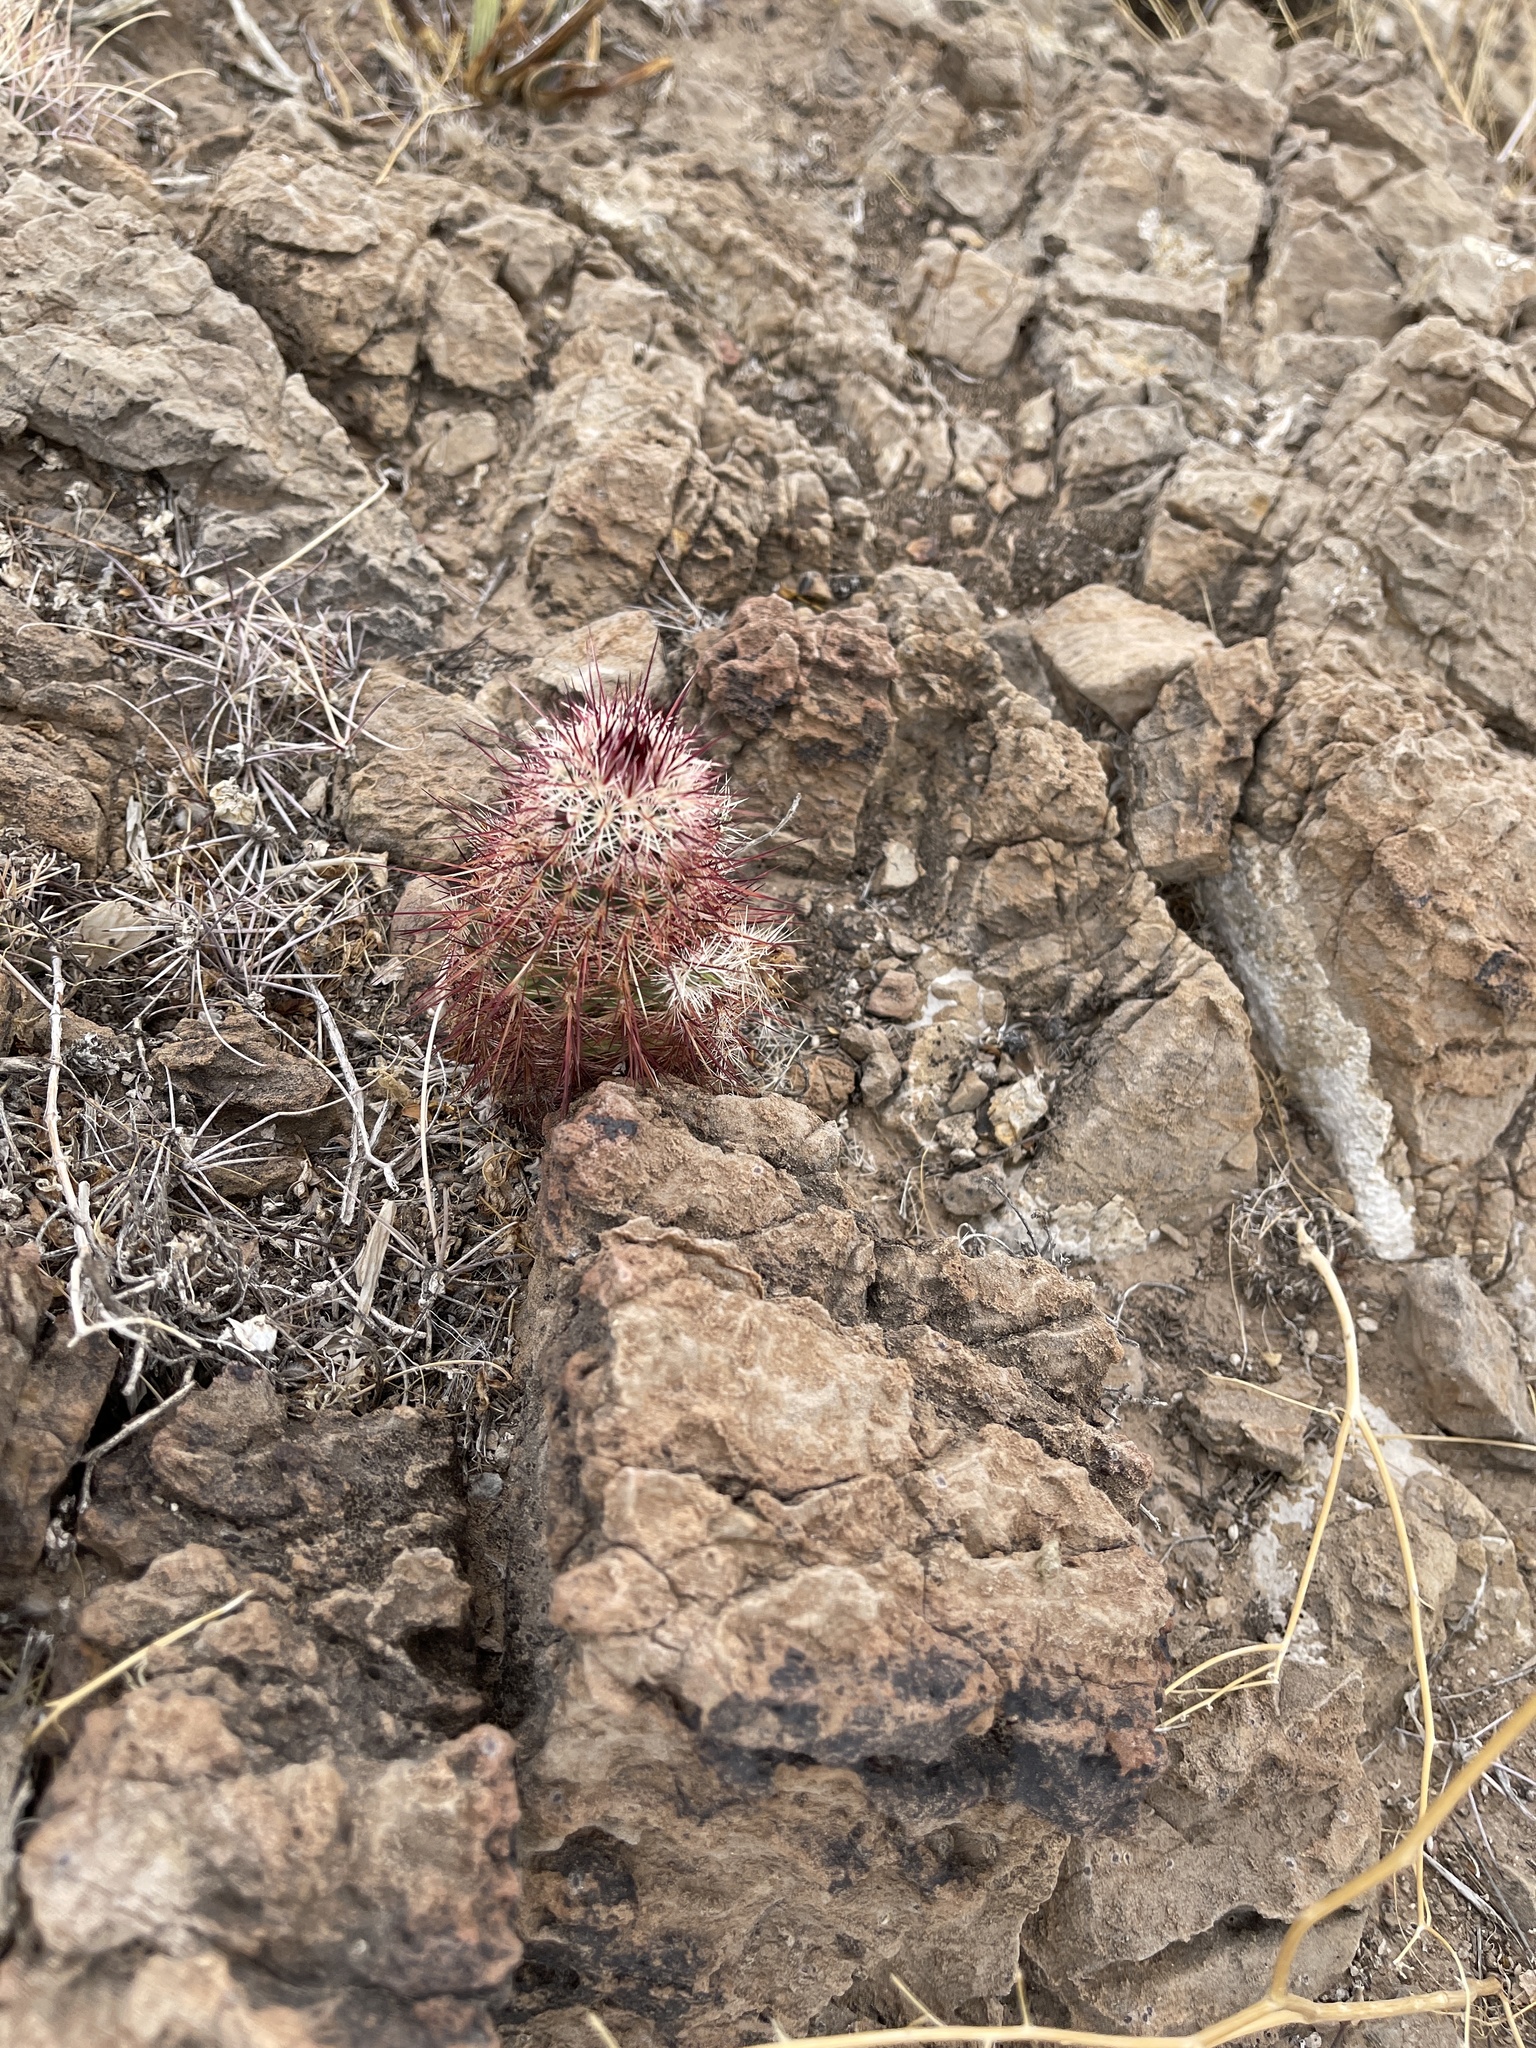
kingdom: Plantae
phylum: Tracheophyta
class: Magnoliopsida
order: Caryophyllales
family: Cactaceae
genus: Echinocereus
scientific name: Echinocereus viridiflorus
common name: Nylon hedgehog cactus
